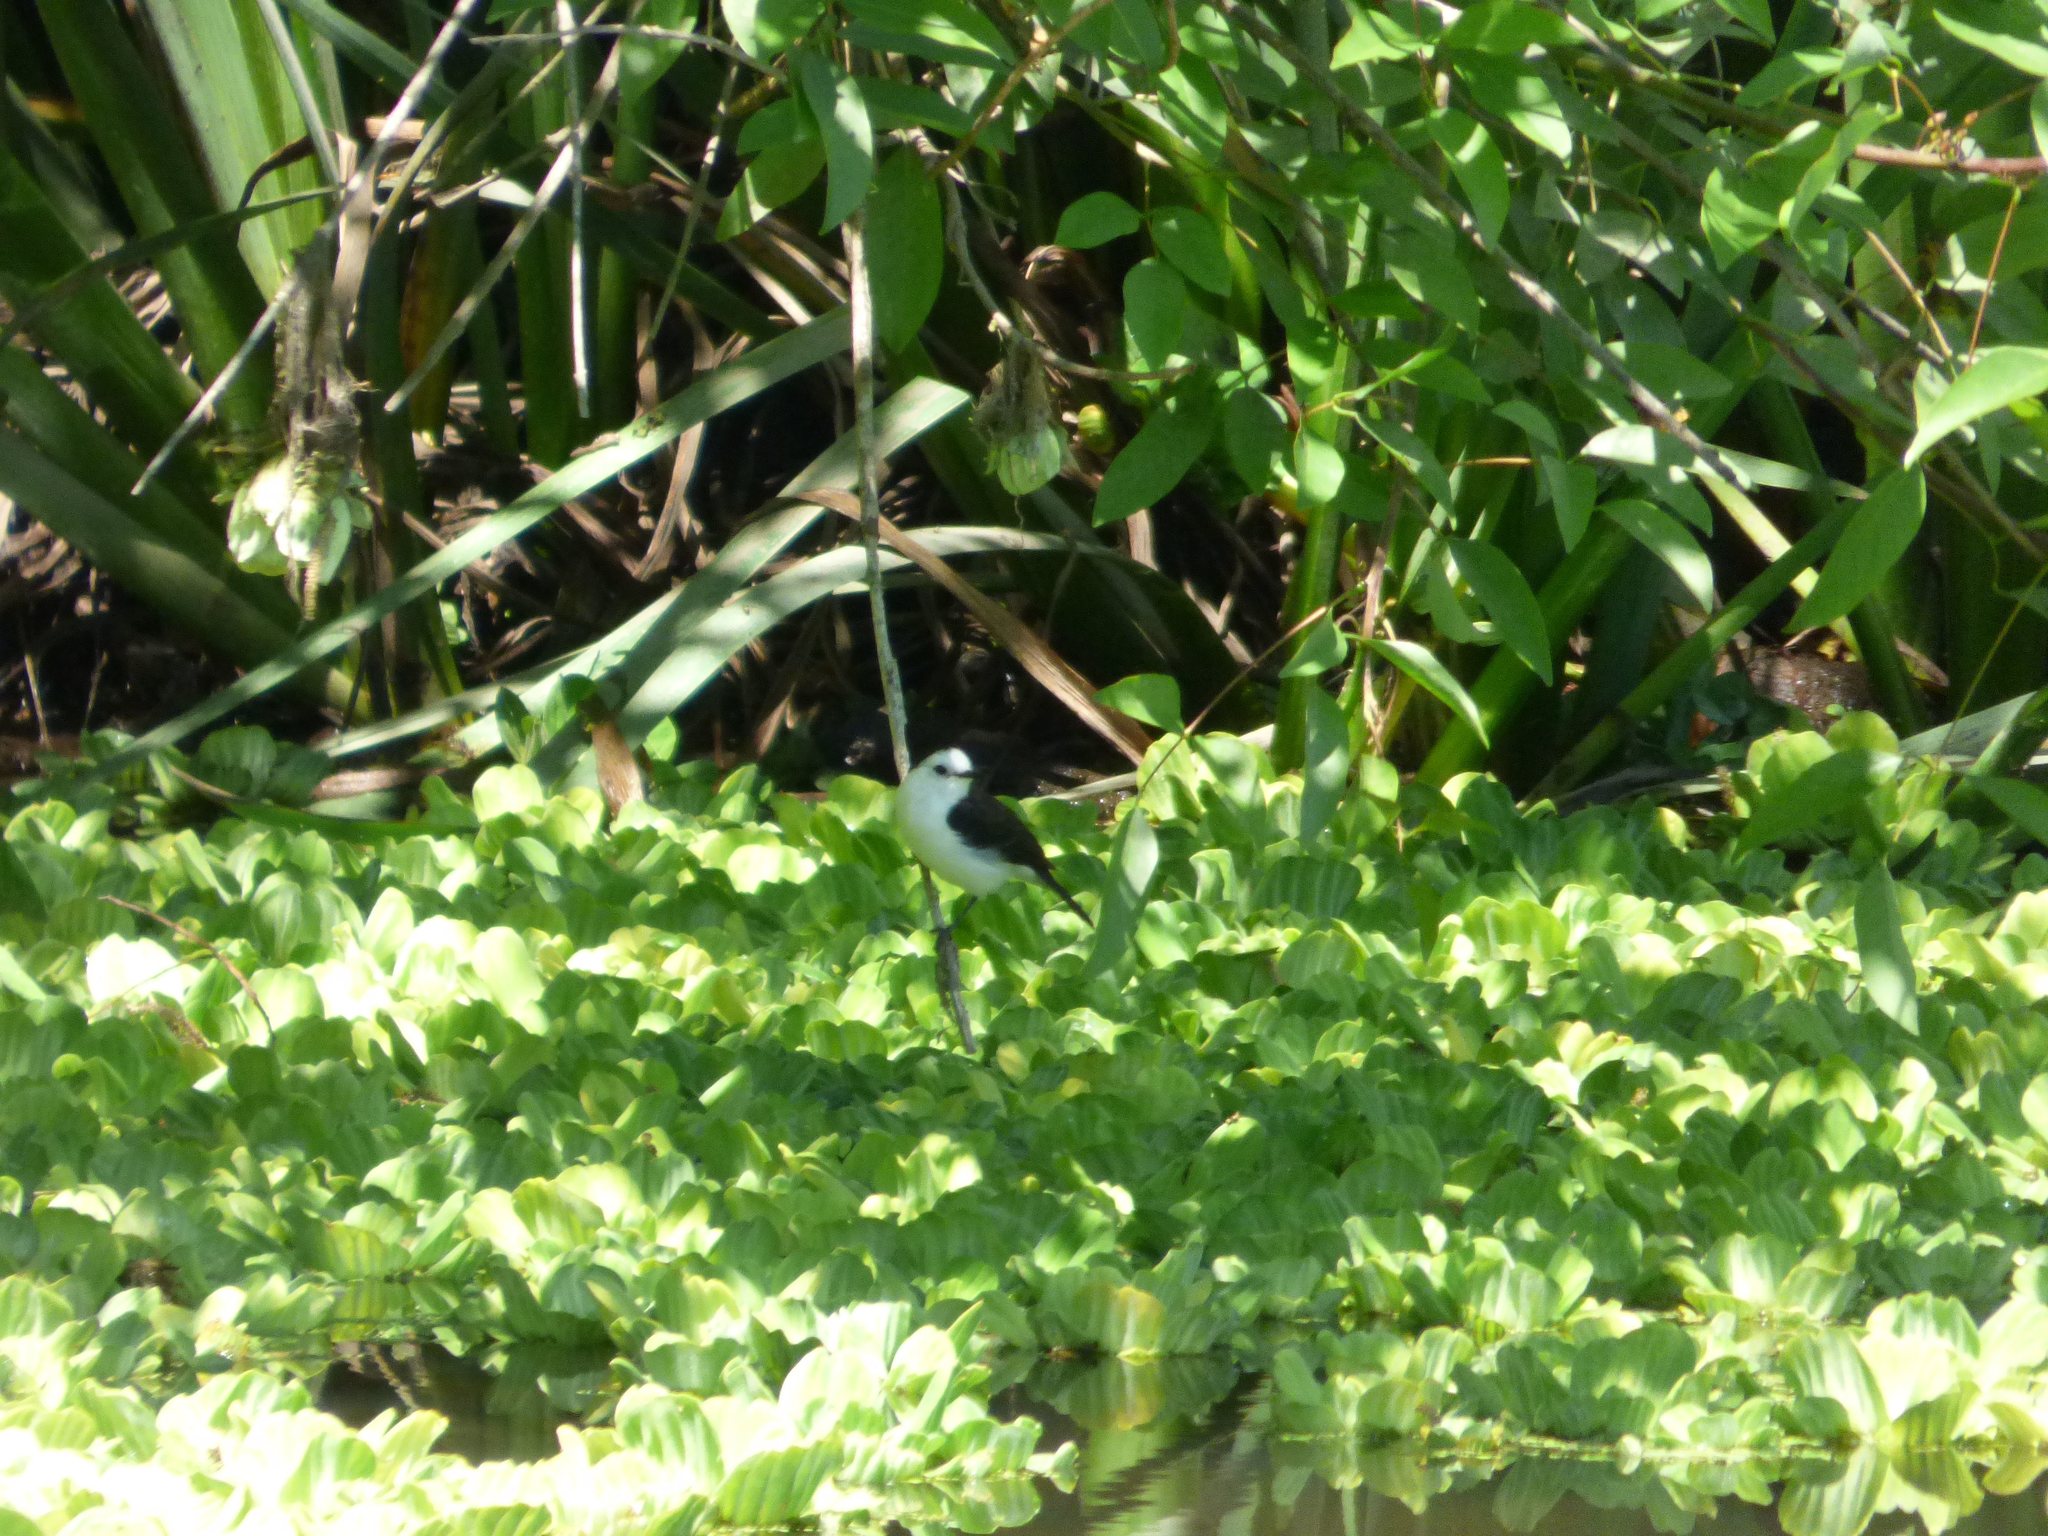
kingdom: Animalia
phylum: Chordata
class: Aves
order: Passeriformes
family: Tyrannidae
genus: Fluvicola
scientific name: Fluvicola pica
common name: Pied water-tyrant
